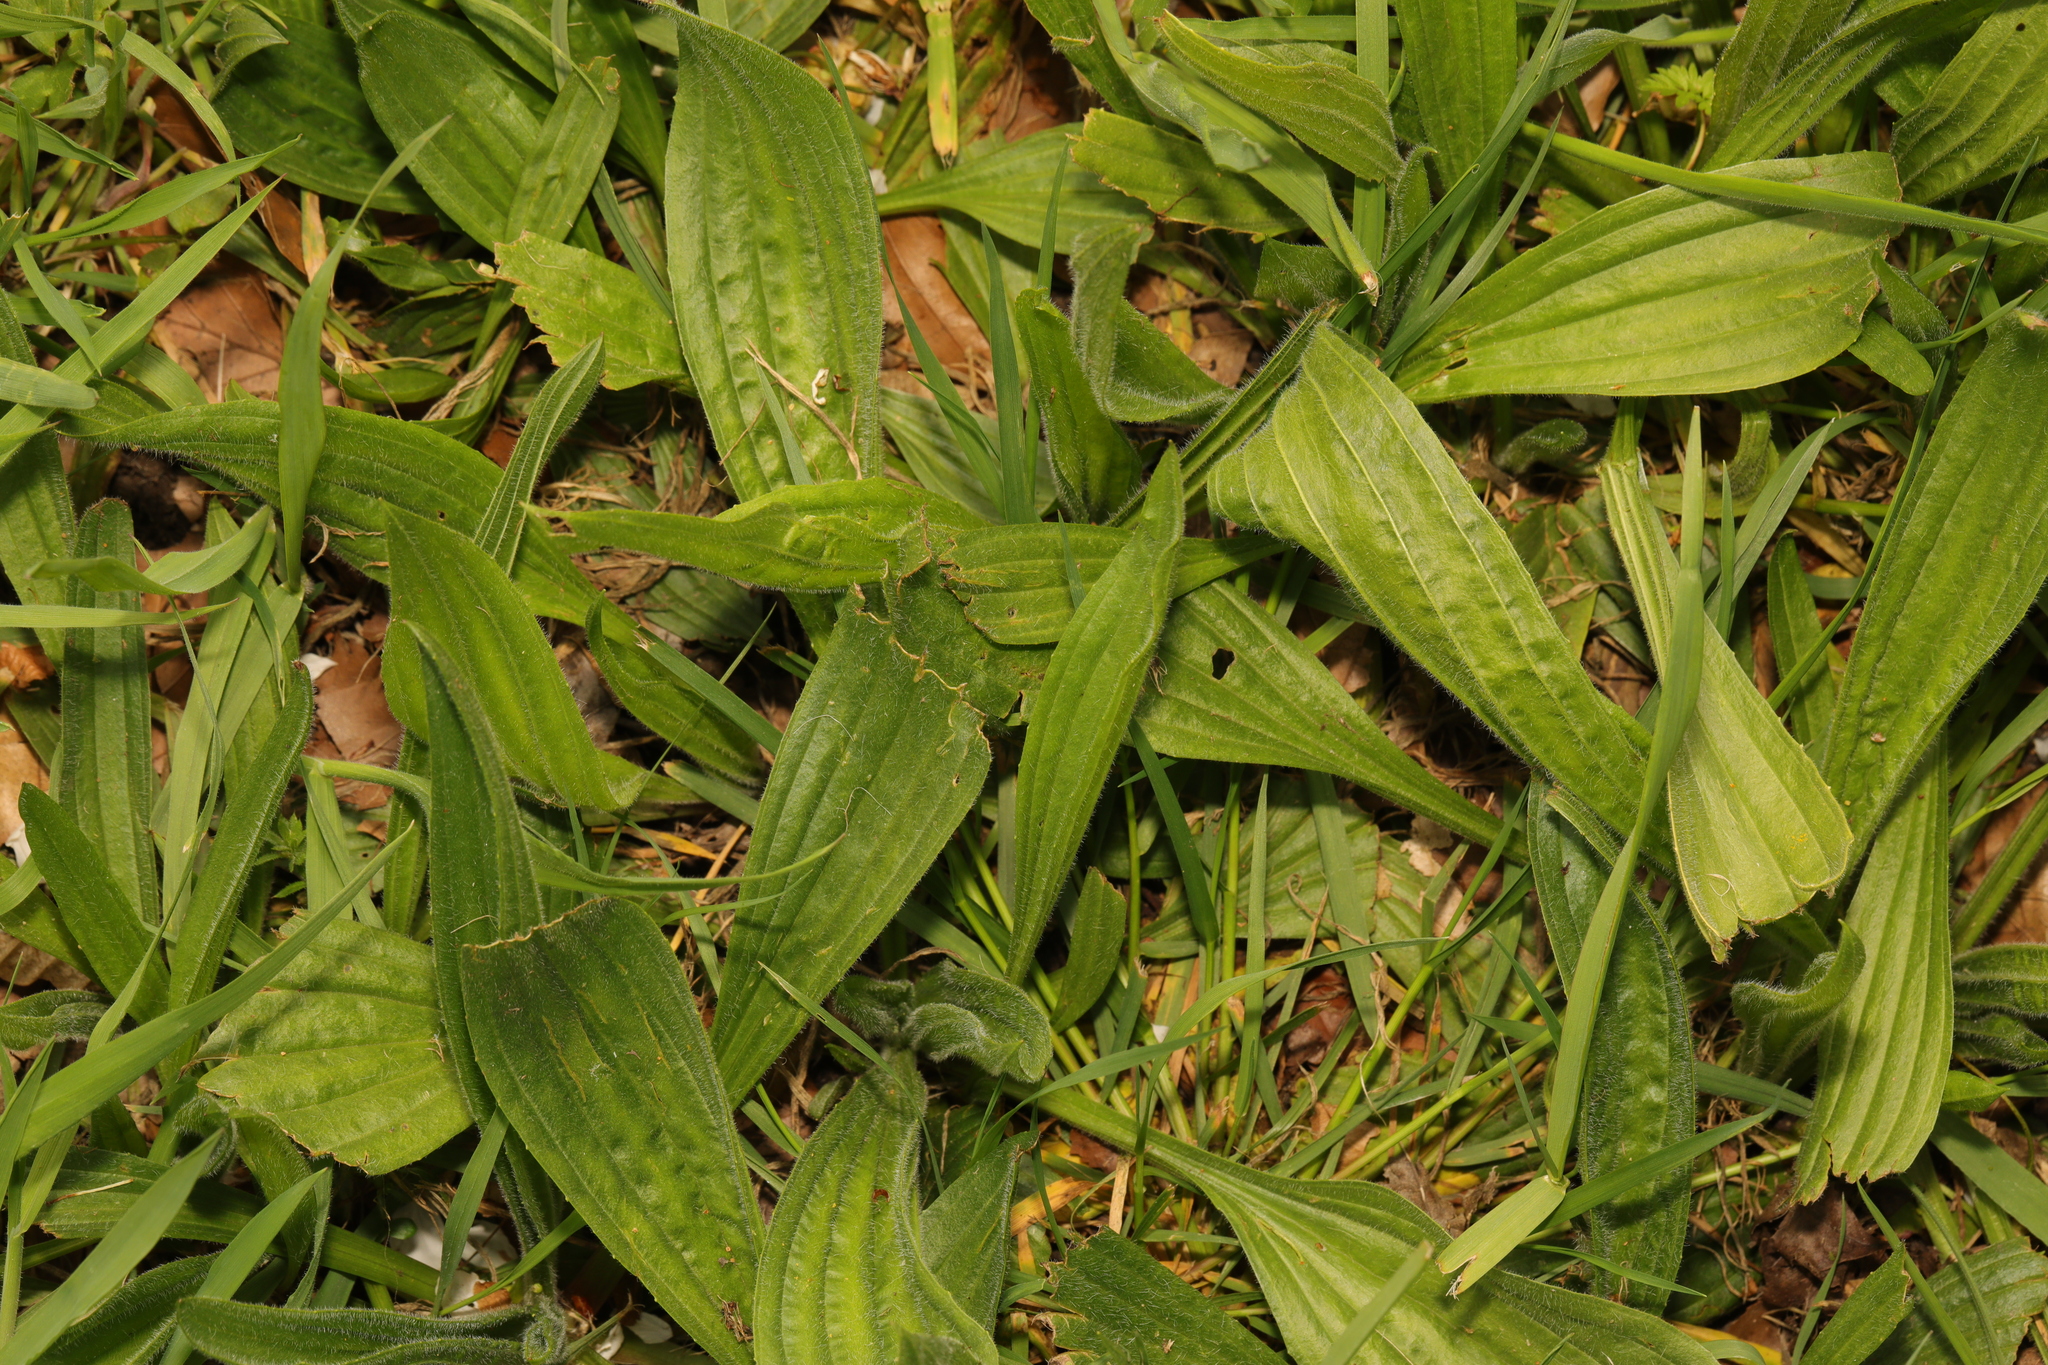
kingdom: Plantae
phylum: Tracheophyta
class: Magnoliopsida
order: Lamiales
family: Plantaginaceae
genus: Plantago
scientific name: Plantago lanceolata
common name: Ribwort plantain
